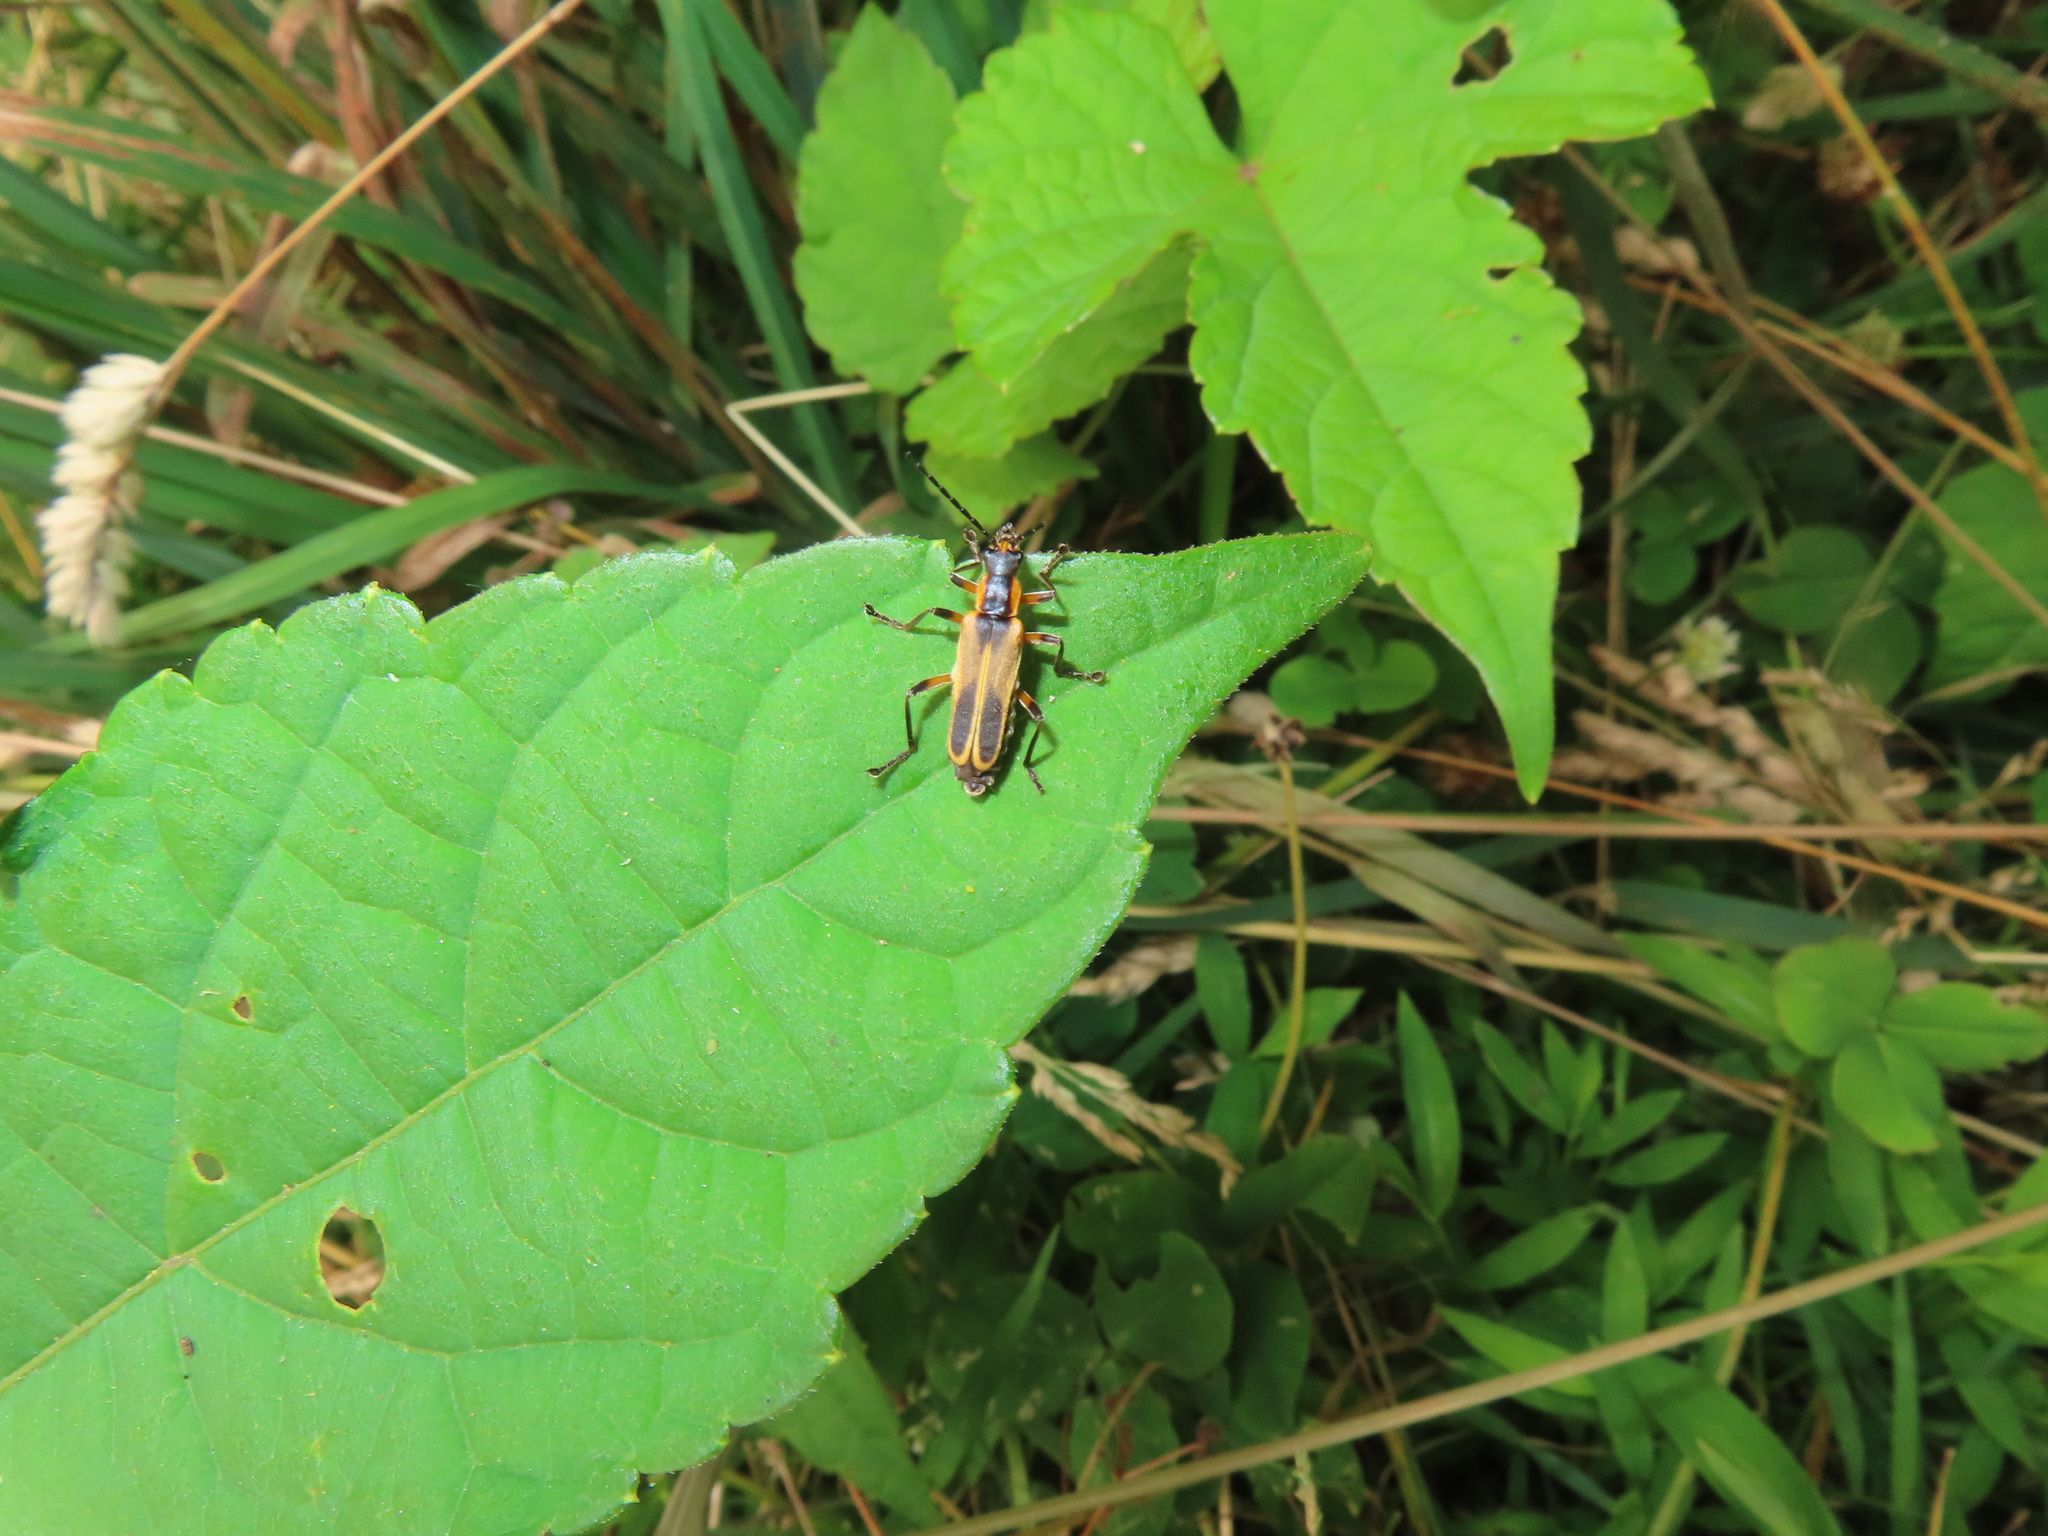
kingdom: Animalia
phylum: Arthropoda
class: Insecta
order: Coleoptera
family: Cantharidae
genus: Chauliognathus
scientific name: Chauliognathus marginatus
